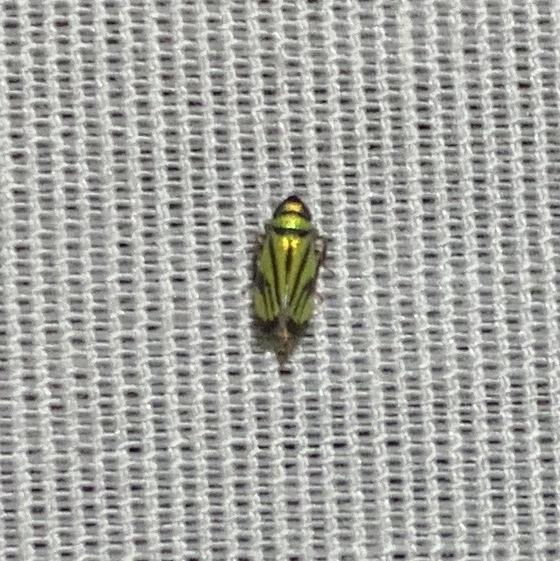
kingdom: Animalia
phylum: Arthropoda
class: Insecta
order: Hemiptera
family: Cicadellidae
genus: Stirellus
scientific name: Stirellus bicolor
